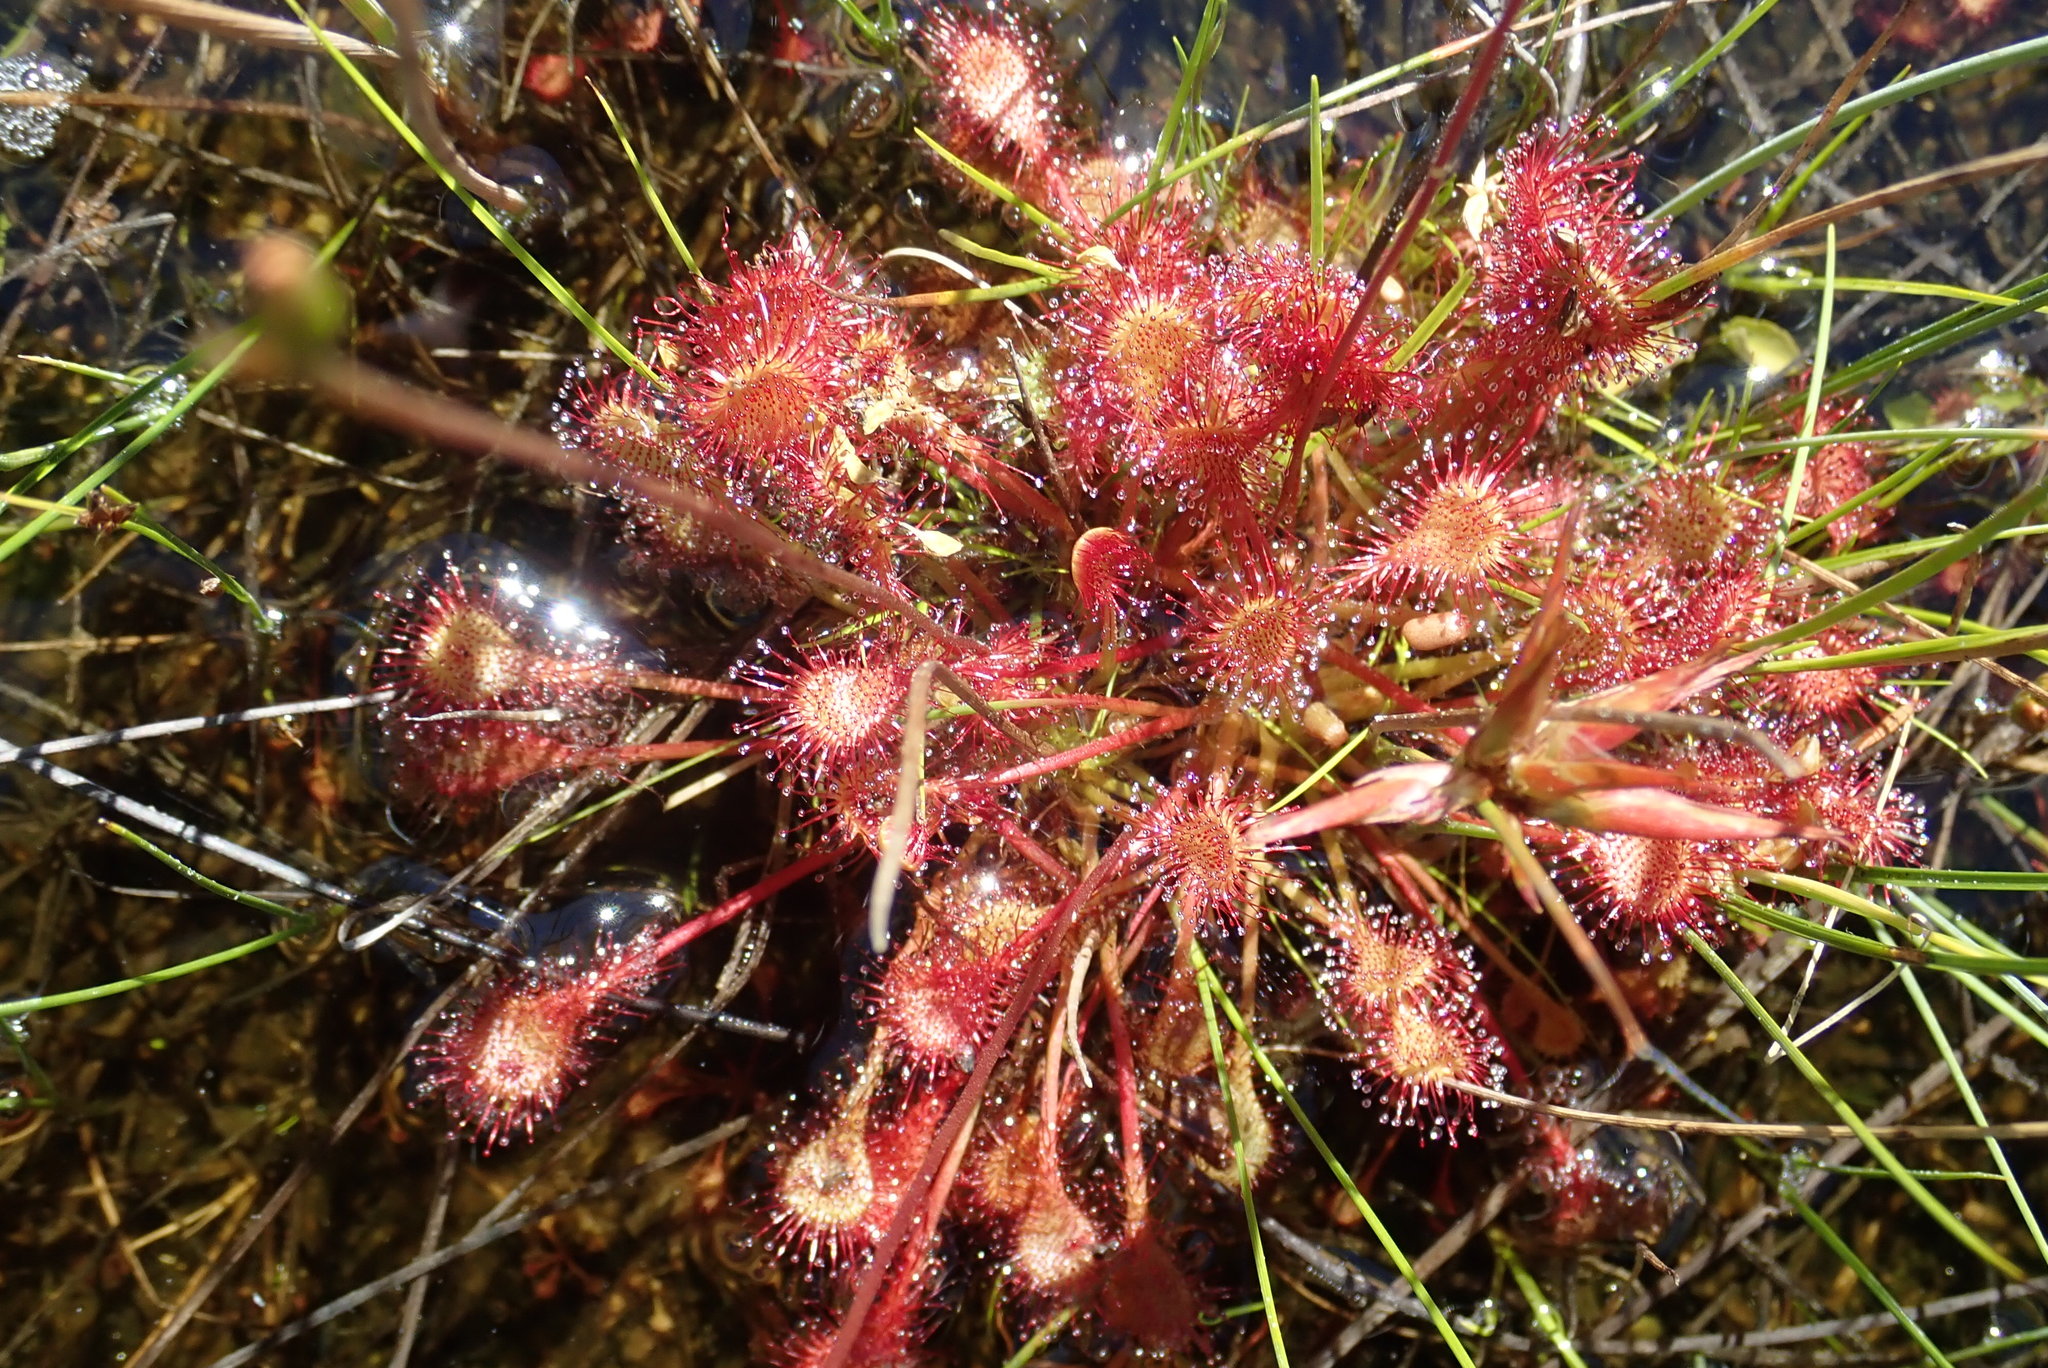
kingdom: Plantae
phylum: Tracheophyta
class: Magnoliopsida
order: Caryophyllales
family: Droseraceae
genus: Drosera
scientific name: Drosera rotundifolia
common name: Round-leaved sundew
